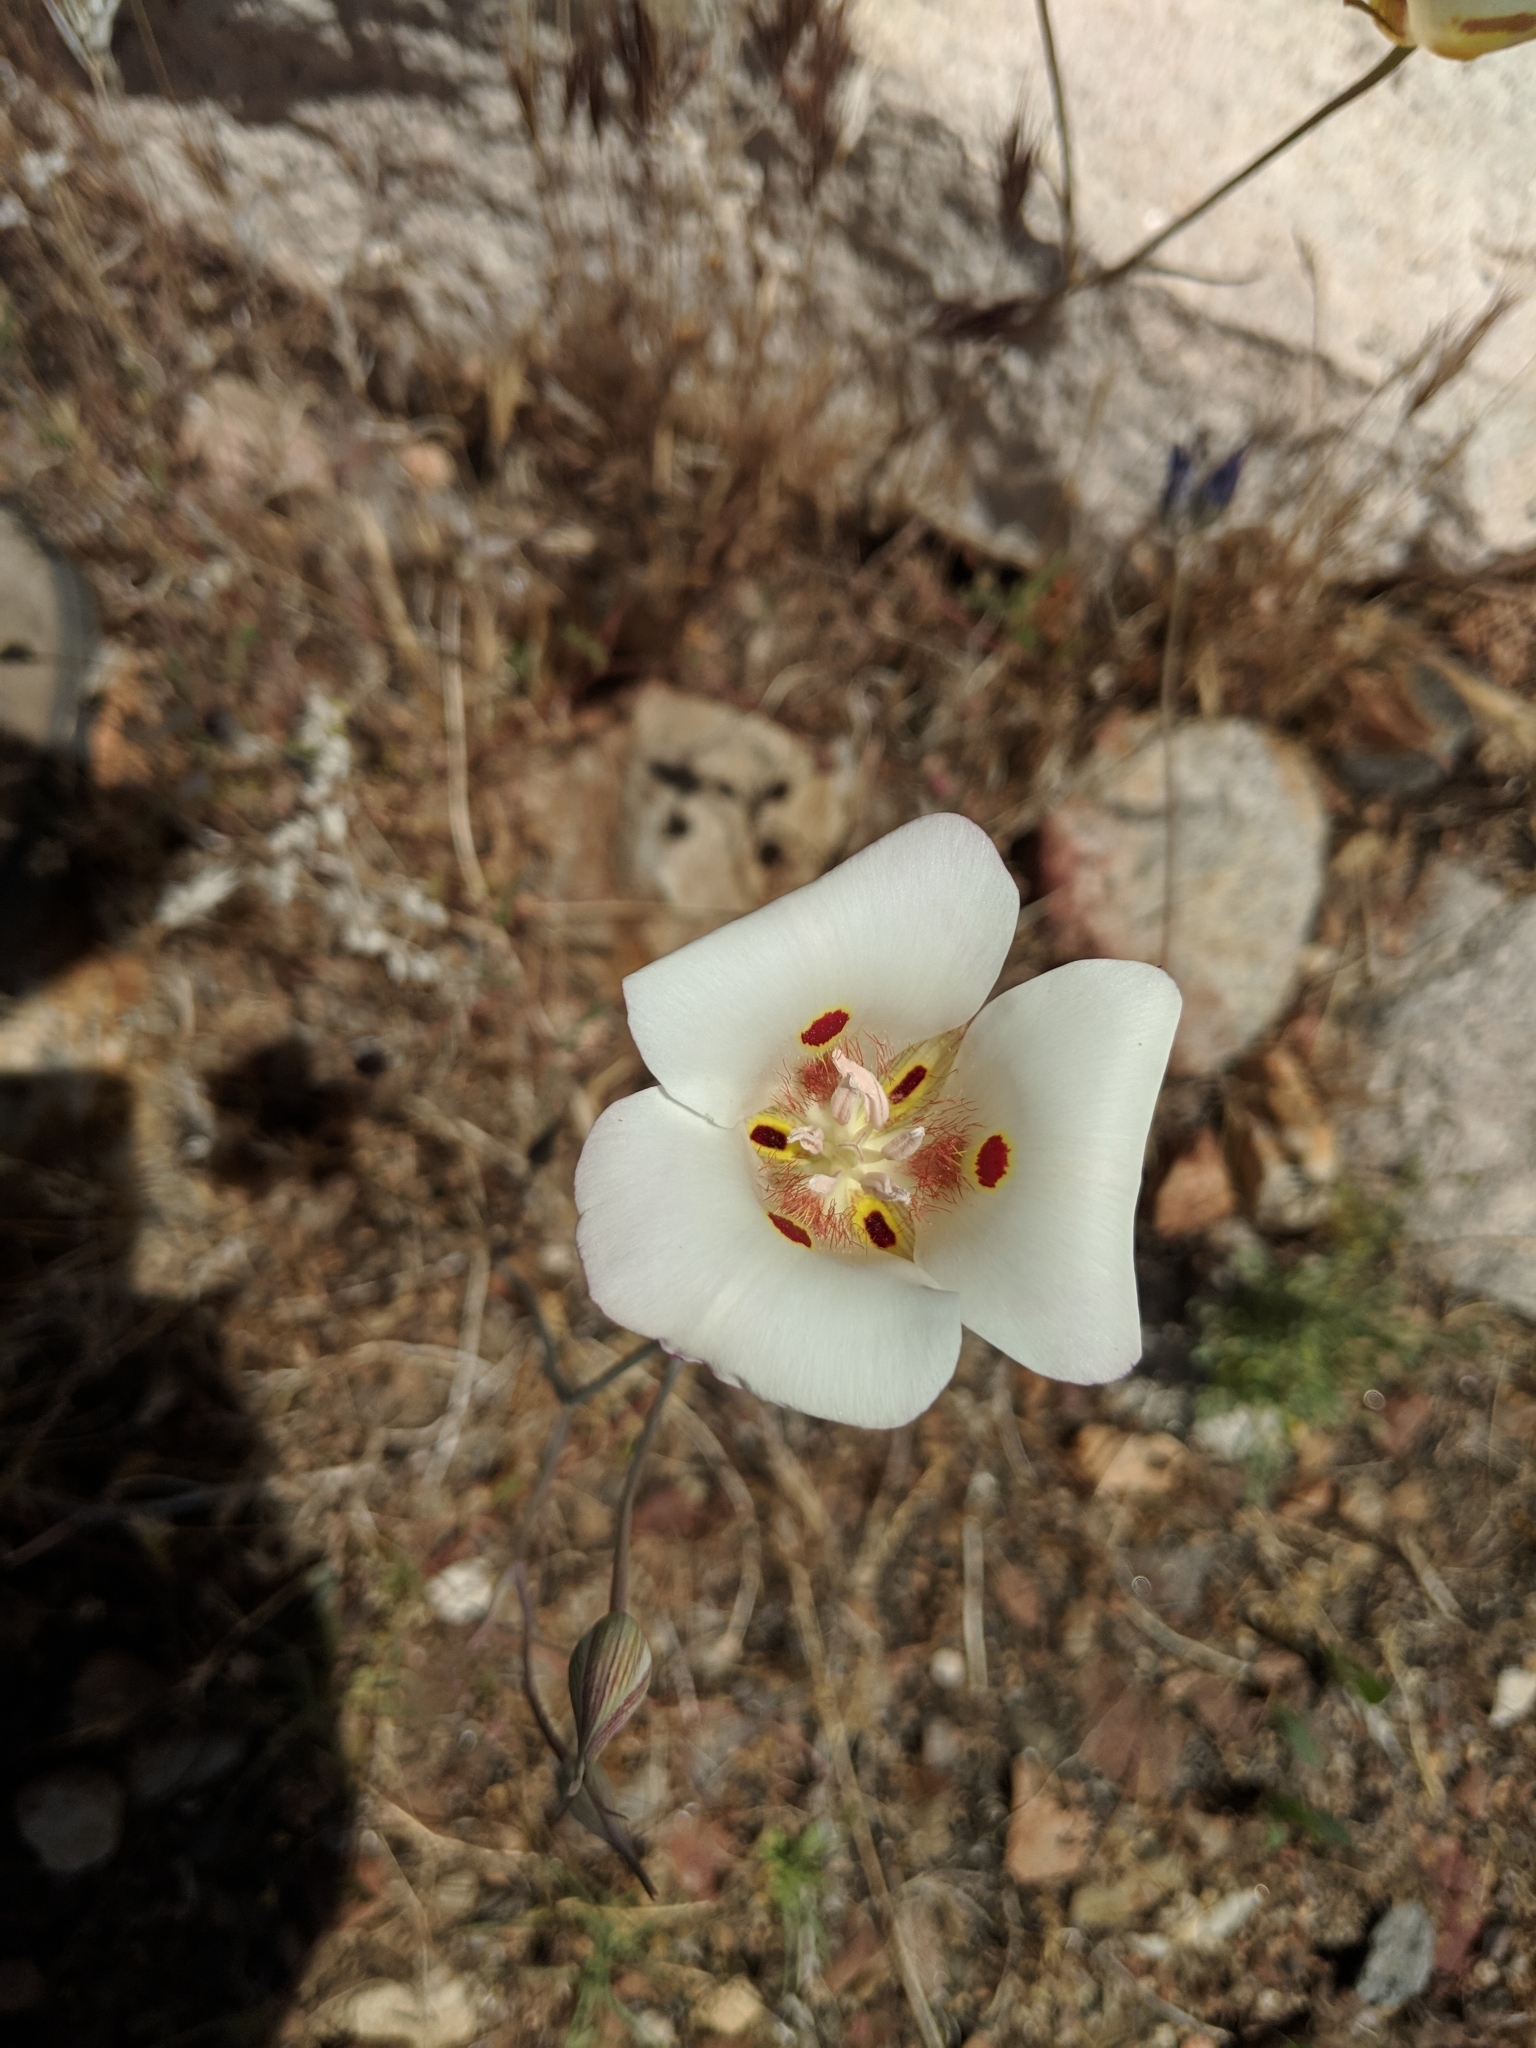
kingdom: Plantae
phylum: Tracheophyta
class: Liliopsida
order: Liliales
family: Liliaceae
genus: Calochortus
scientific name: Calochortus venustus
